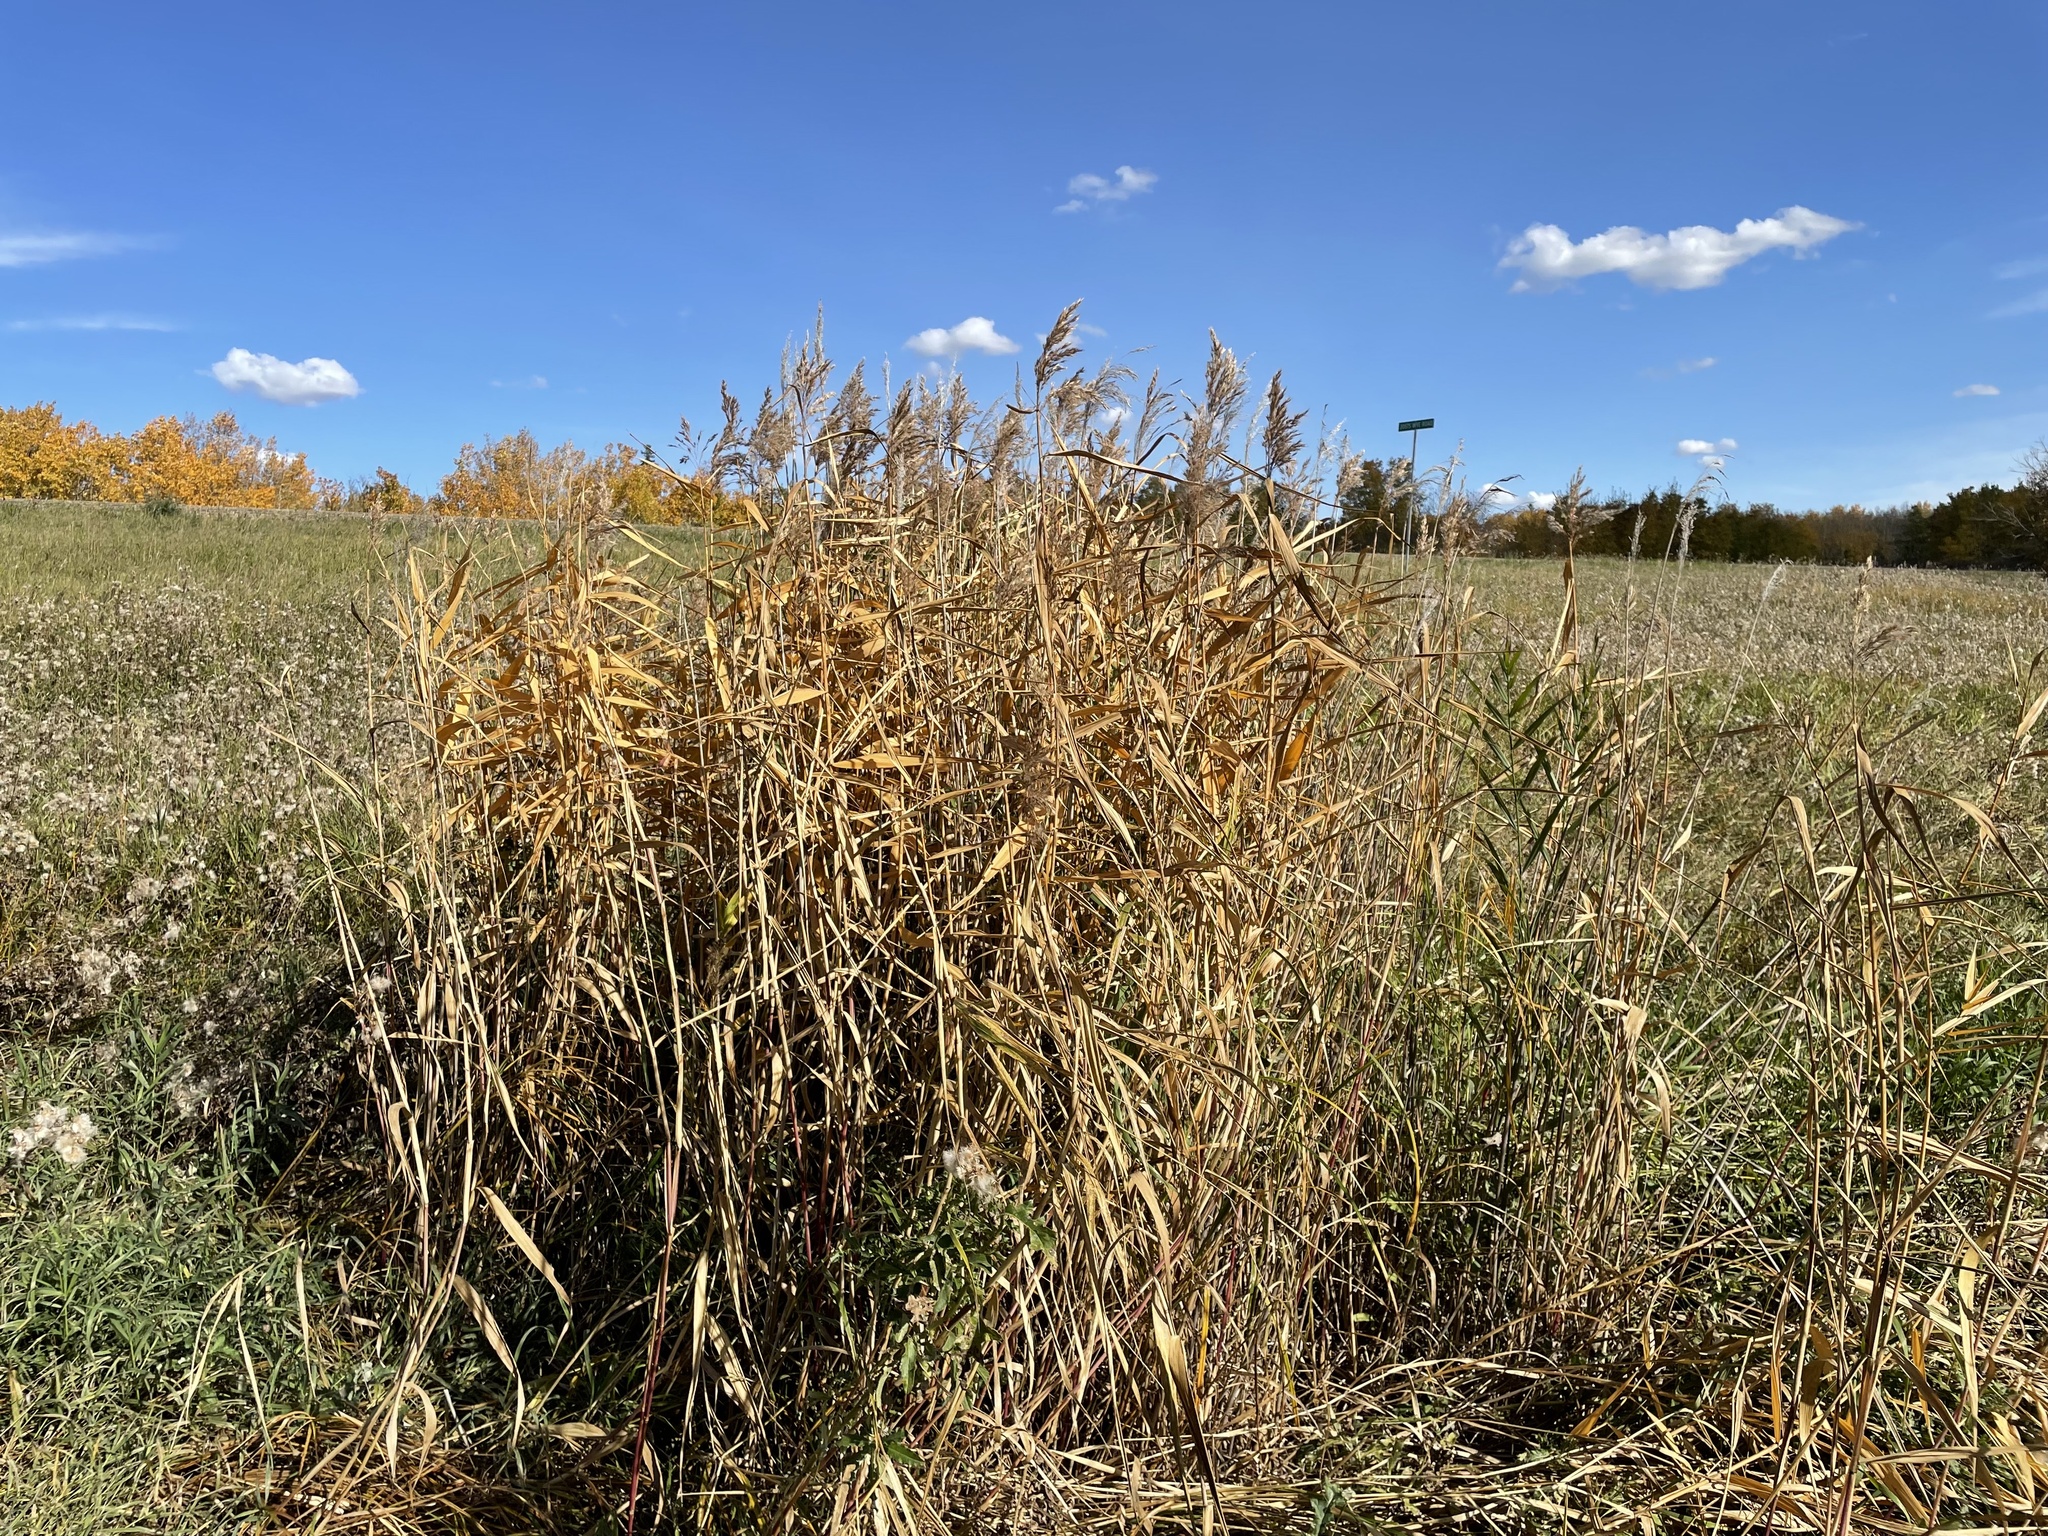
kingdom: Plantae
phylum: Tracheophyta
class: Liliopsida
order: Poales
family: Poaceae
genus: Phragmites
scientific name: Phragmites australis
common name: Common reed
